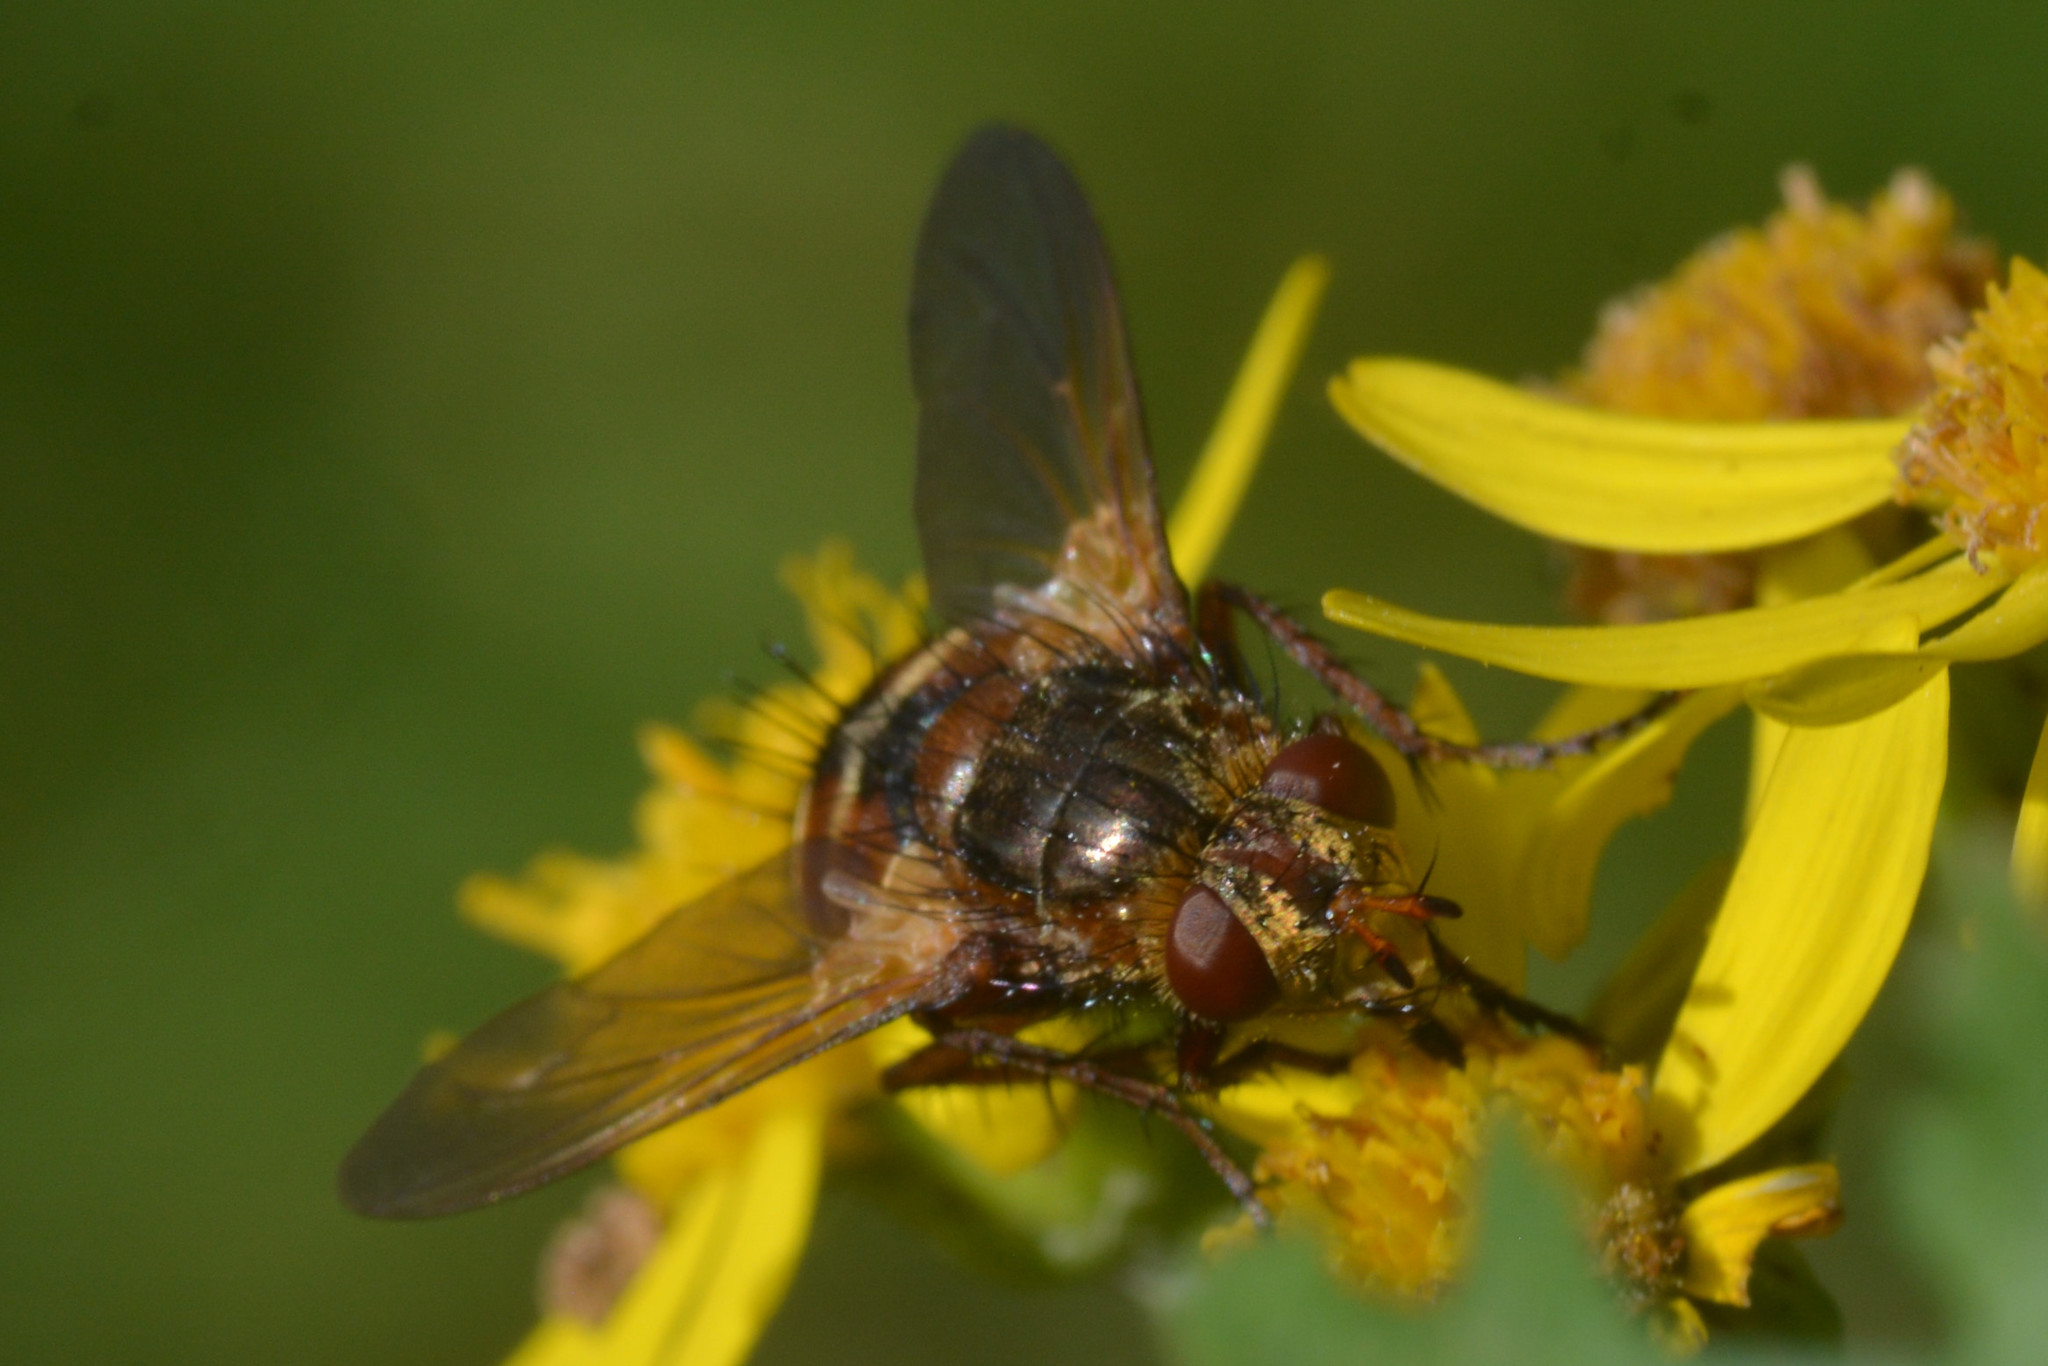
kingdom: Animalia
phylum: Arthropoda
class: Insecta
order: Diptera
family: Tachinidae
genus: Tachina
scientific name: Tachina fera
